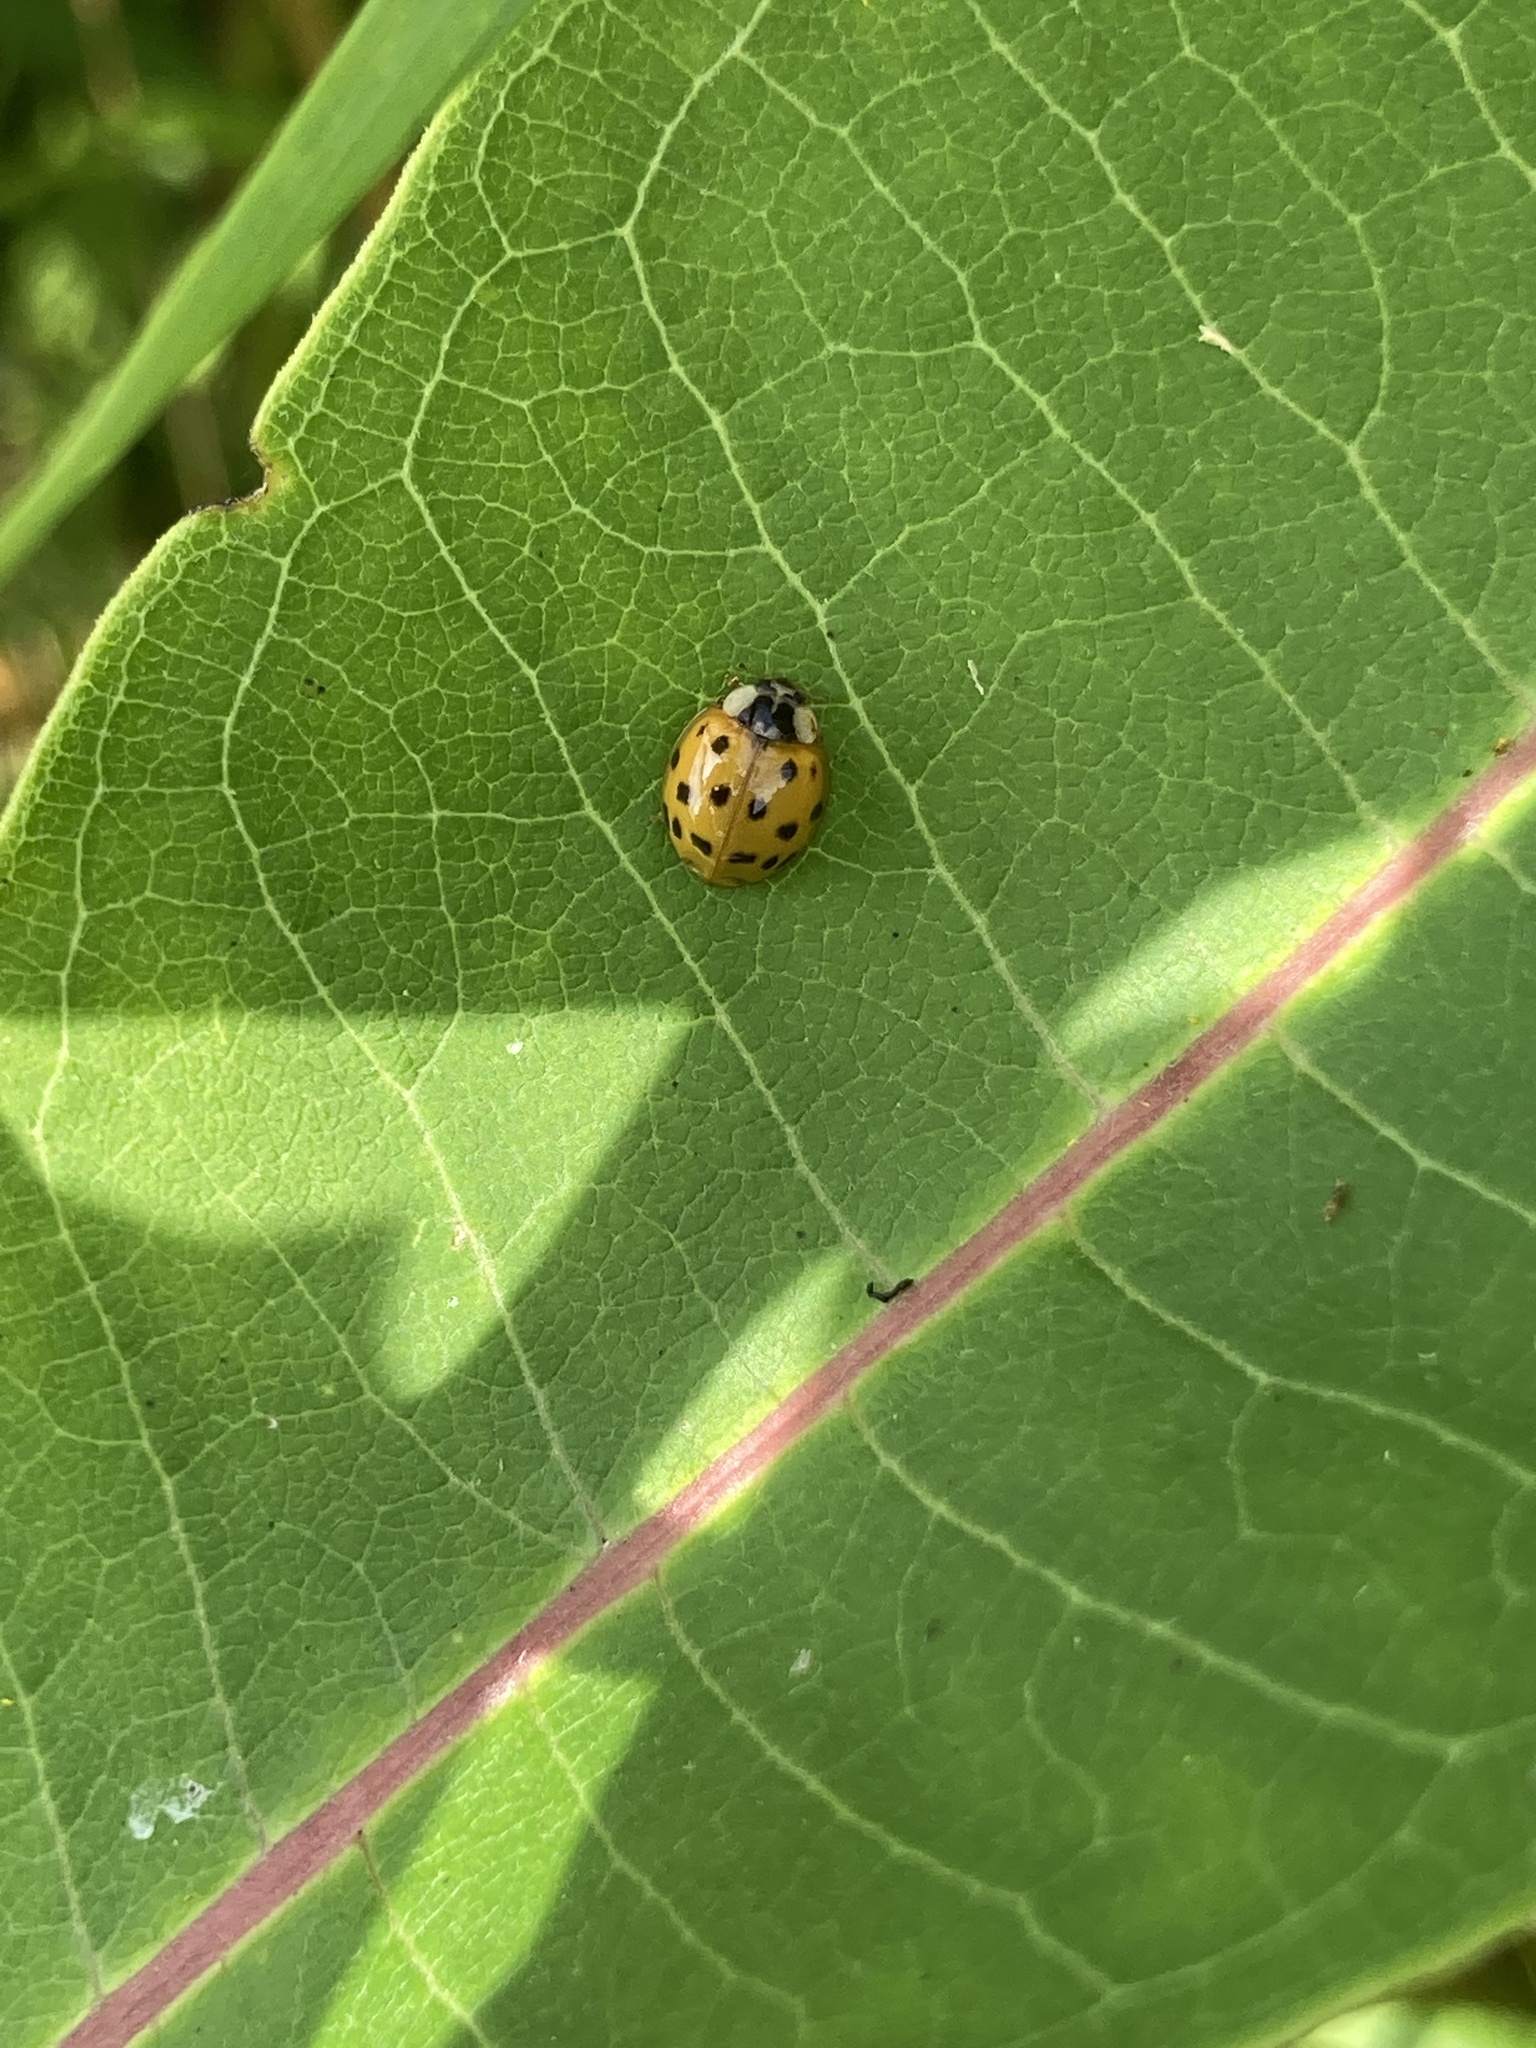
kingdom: Animalia
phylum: Arthropoda
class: Insecta
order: Coleoptera
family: Coccinellidae
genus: Harmonia
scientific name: Harmonia axyridis
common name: Harlequin ladybird
